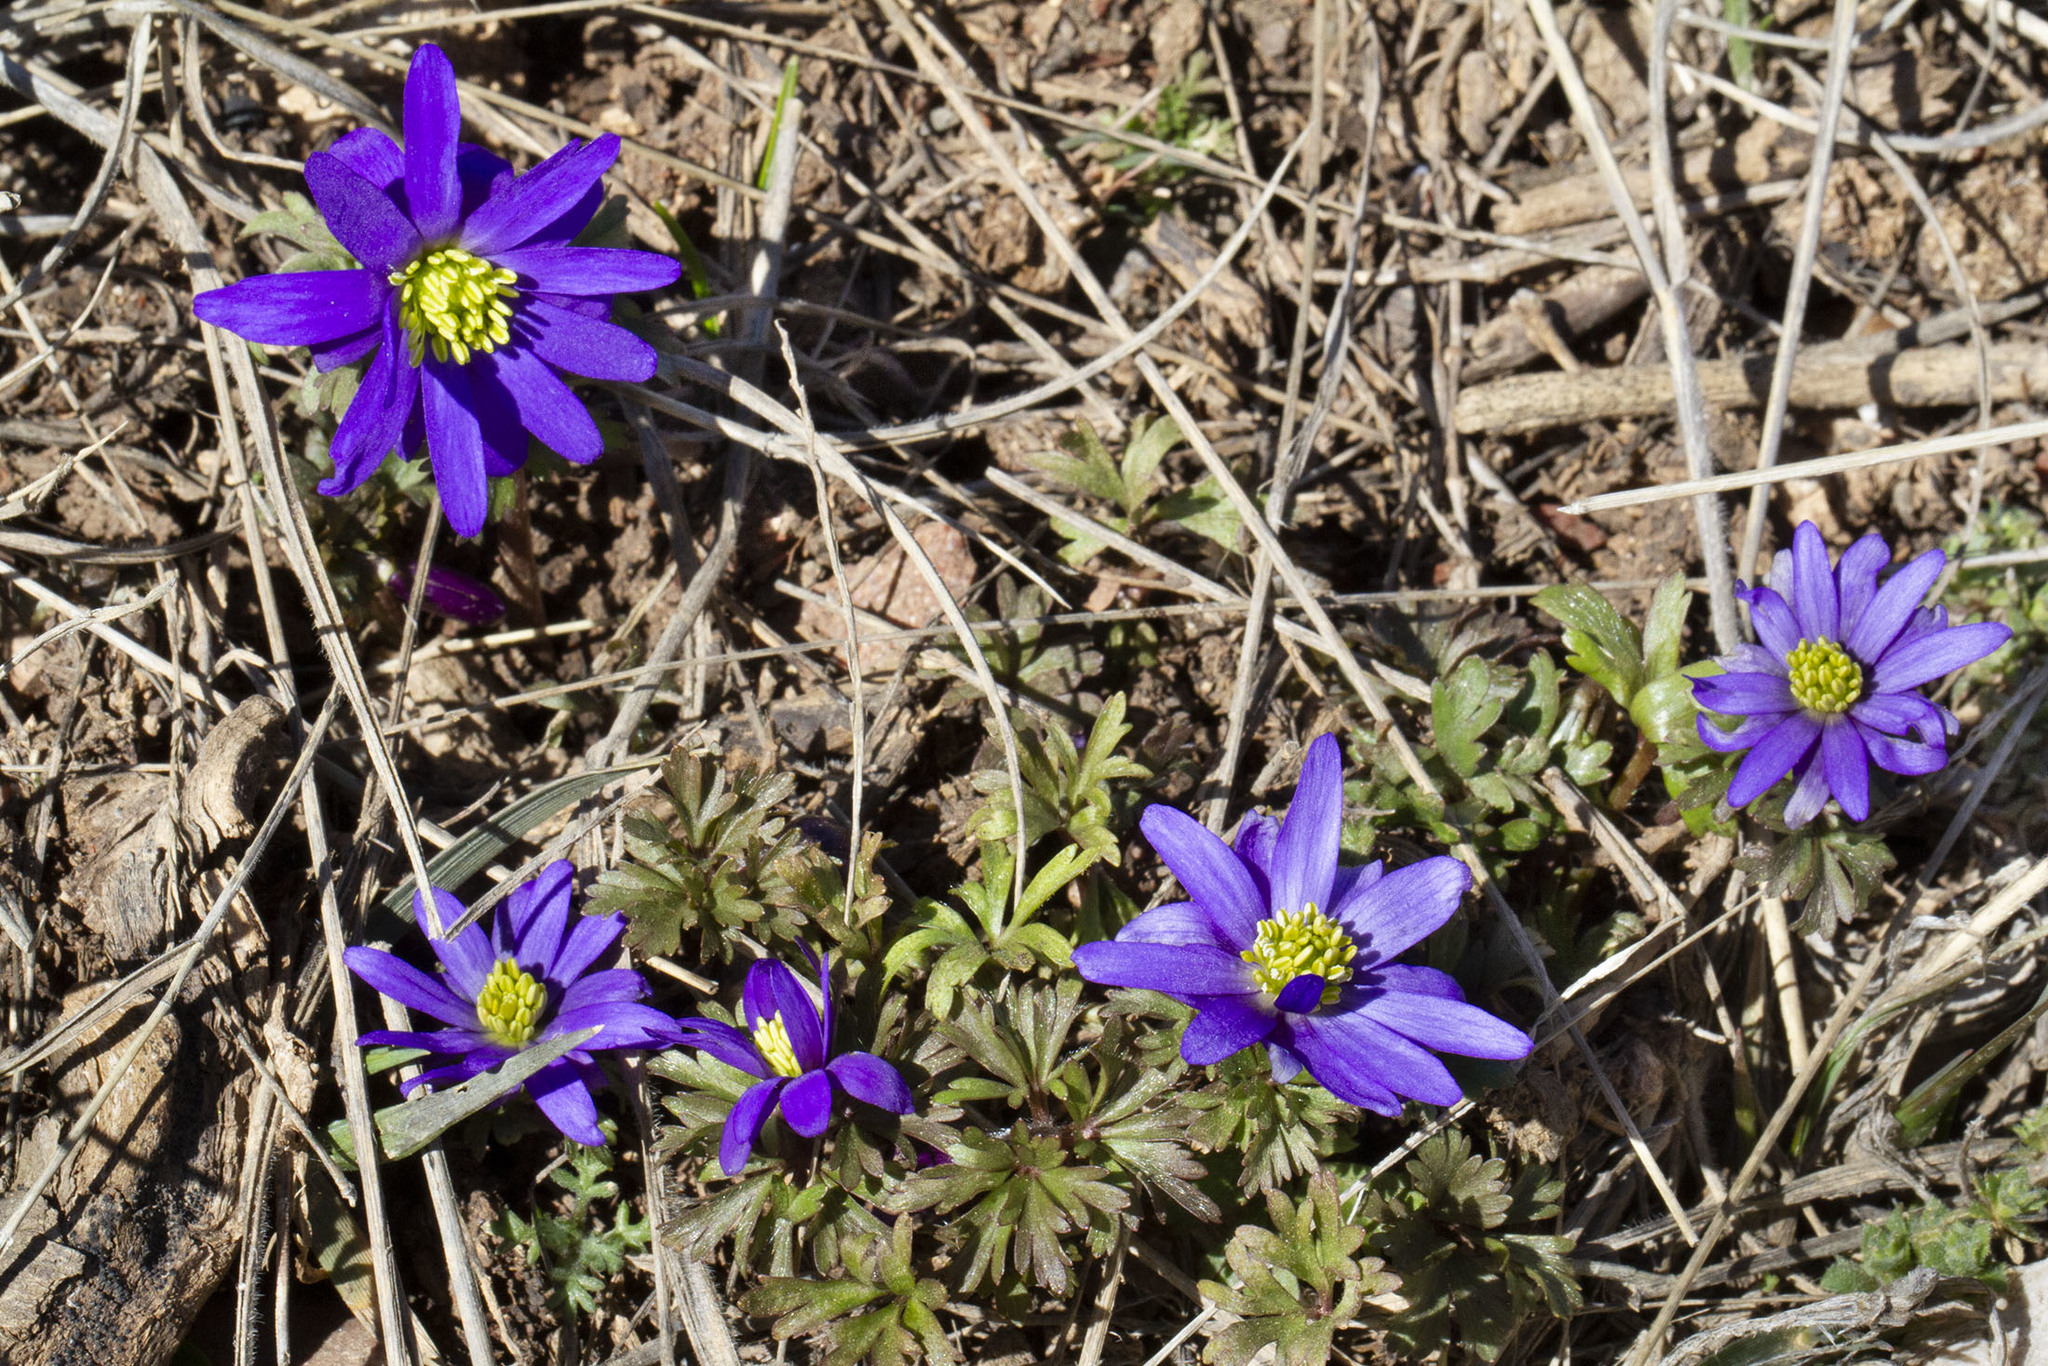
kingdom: Plantae
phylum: Tracheophyta
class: Magnoliopsida
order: Ranunculales
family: Ranunculaceae
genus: Anemone
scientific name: Anemone blanda
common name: Balkan anemone
